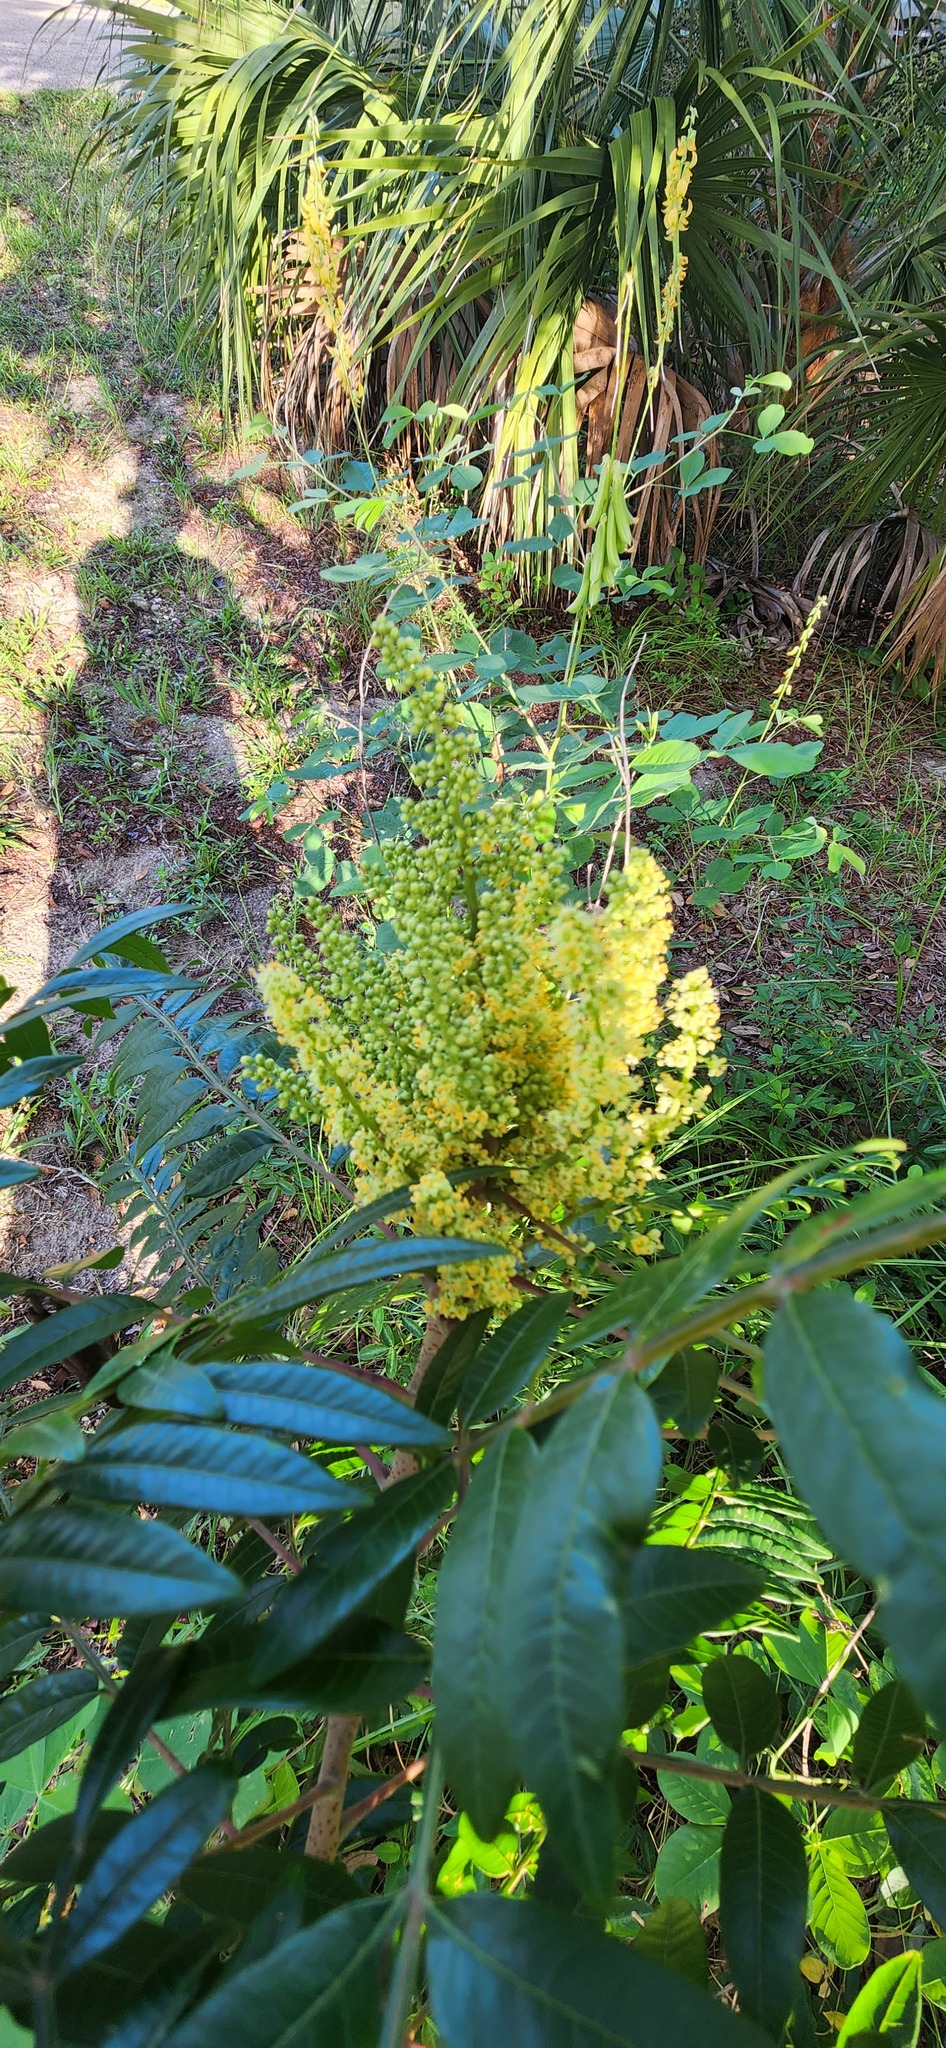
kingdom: Plantae
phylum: Tracheophyta
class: Magnoliopsida
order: Sapindales
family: Anacardiaceae
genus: Rhus
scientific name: Rhus copallina
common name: Shining sumac
